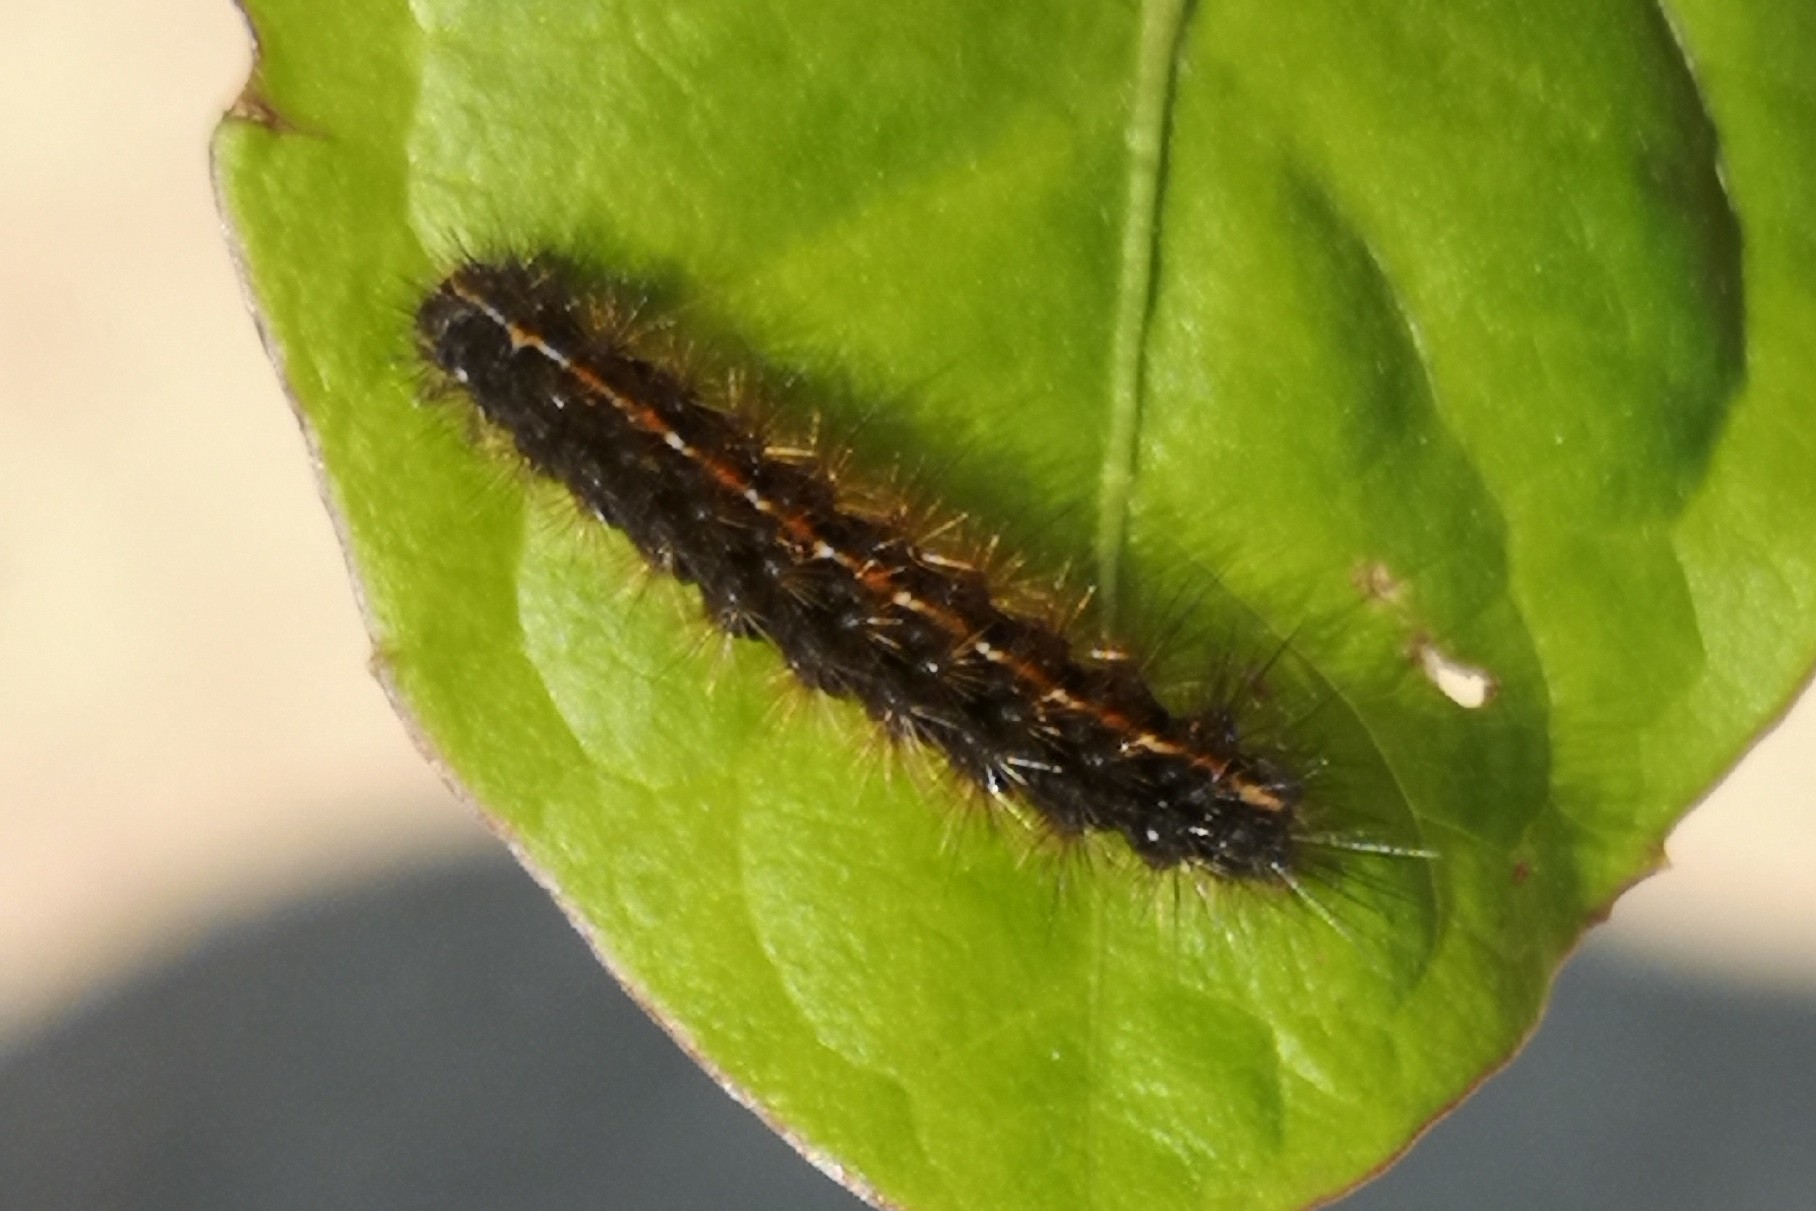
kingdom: Animalia
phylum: Arthropoda
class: Insecta
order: Lepidoptera
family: Erebidae
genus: Diacrisia
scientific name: Diacrisia sannio
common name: Clouded buff
